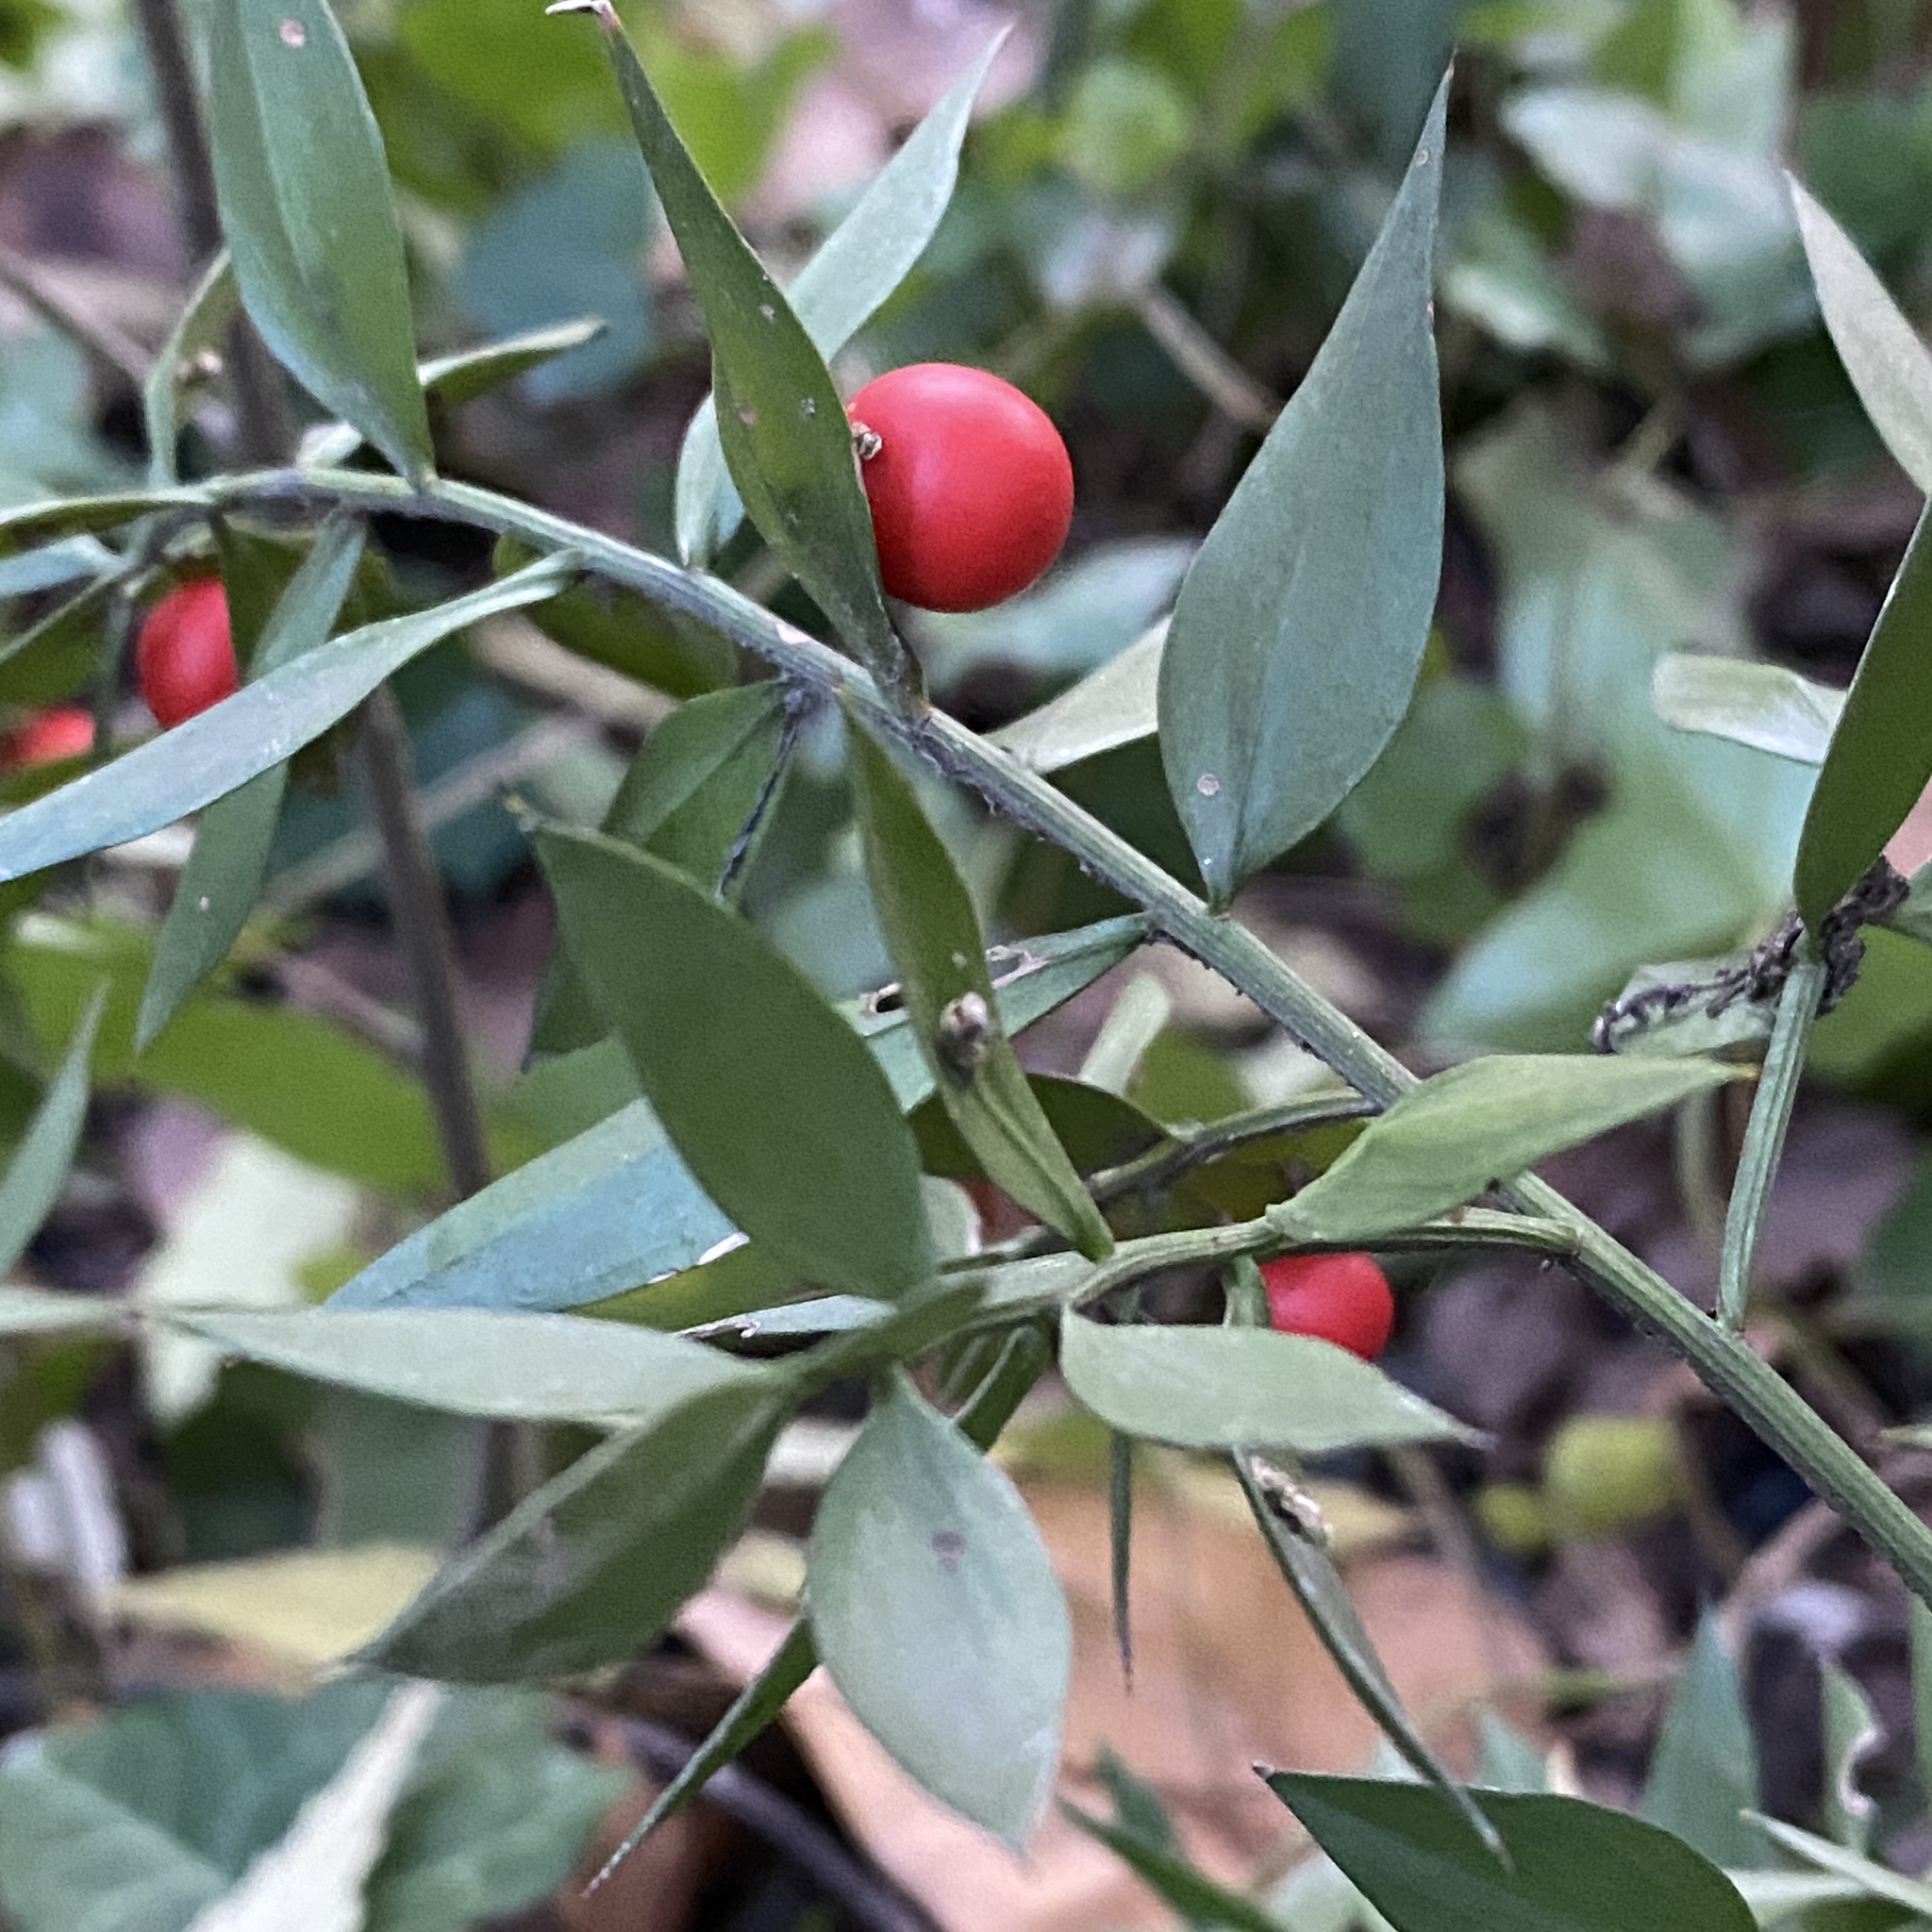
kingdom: Plantae
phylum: Tracheophyta
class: Liliopsida
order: Asparagales
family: Asparagaceae
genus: Ruscus
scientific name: Ruscus aculeatus
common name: Butcher's-broom
